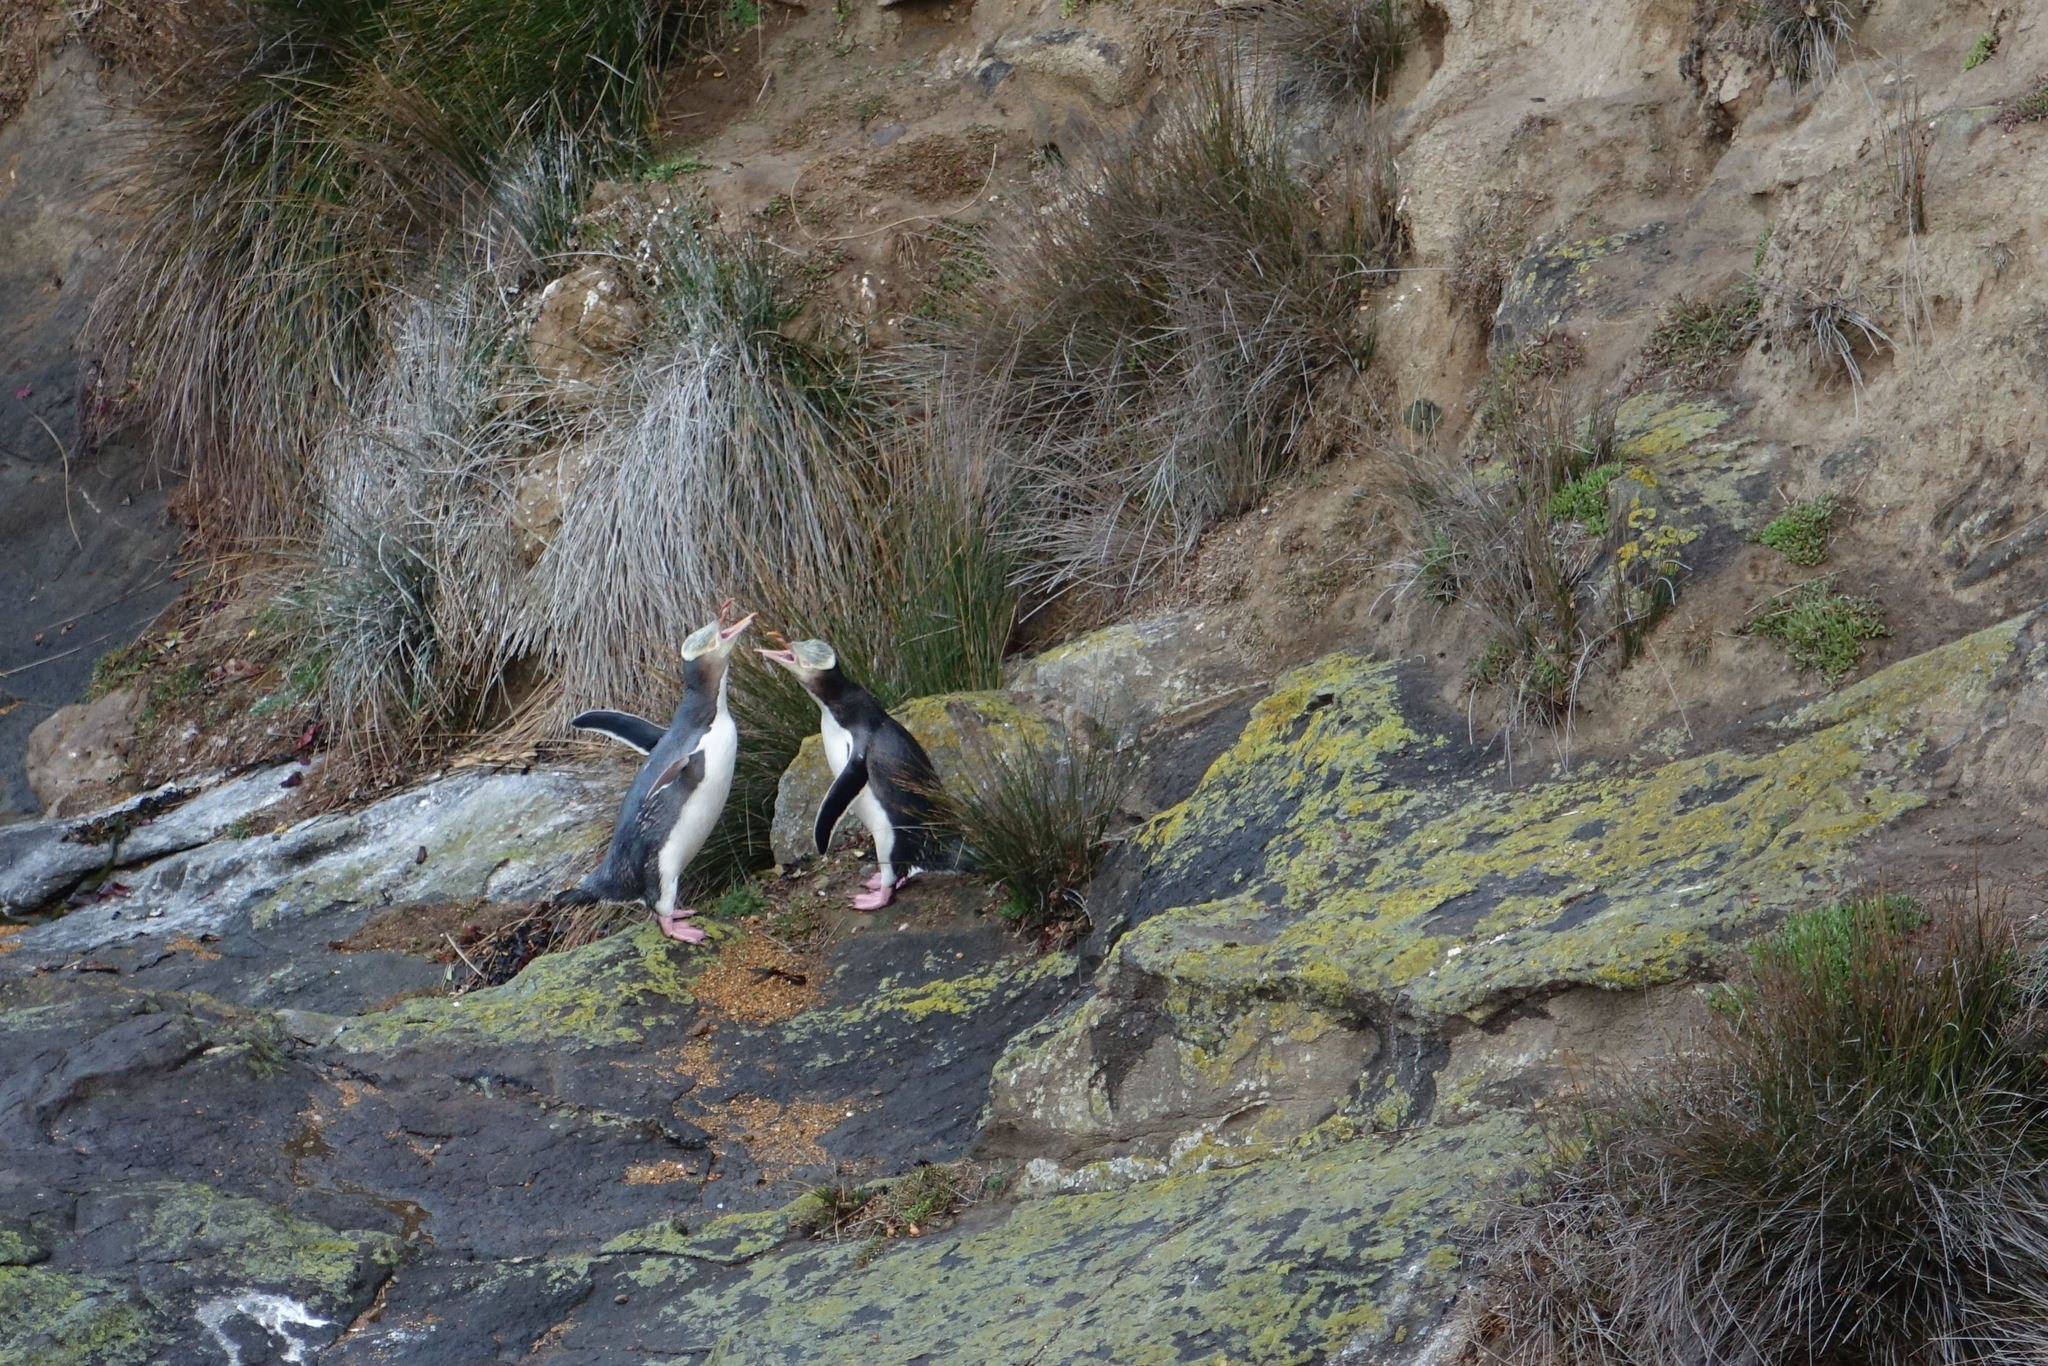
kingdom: Animalia
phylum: Chordata
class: Aves
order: Sphenisciformes
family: Spheniscidae
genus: Megadyptes
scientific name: Megadyptes antipodes
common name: Yellow-eyed penguin
